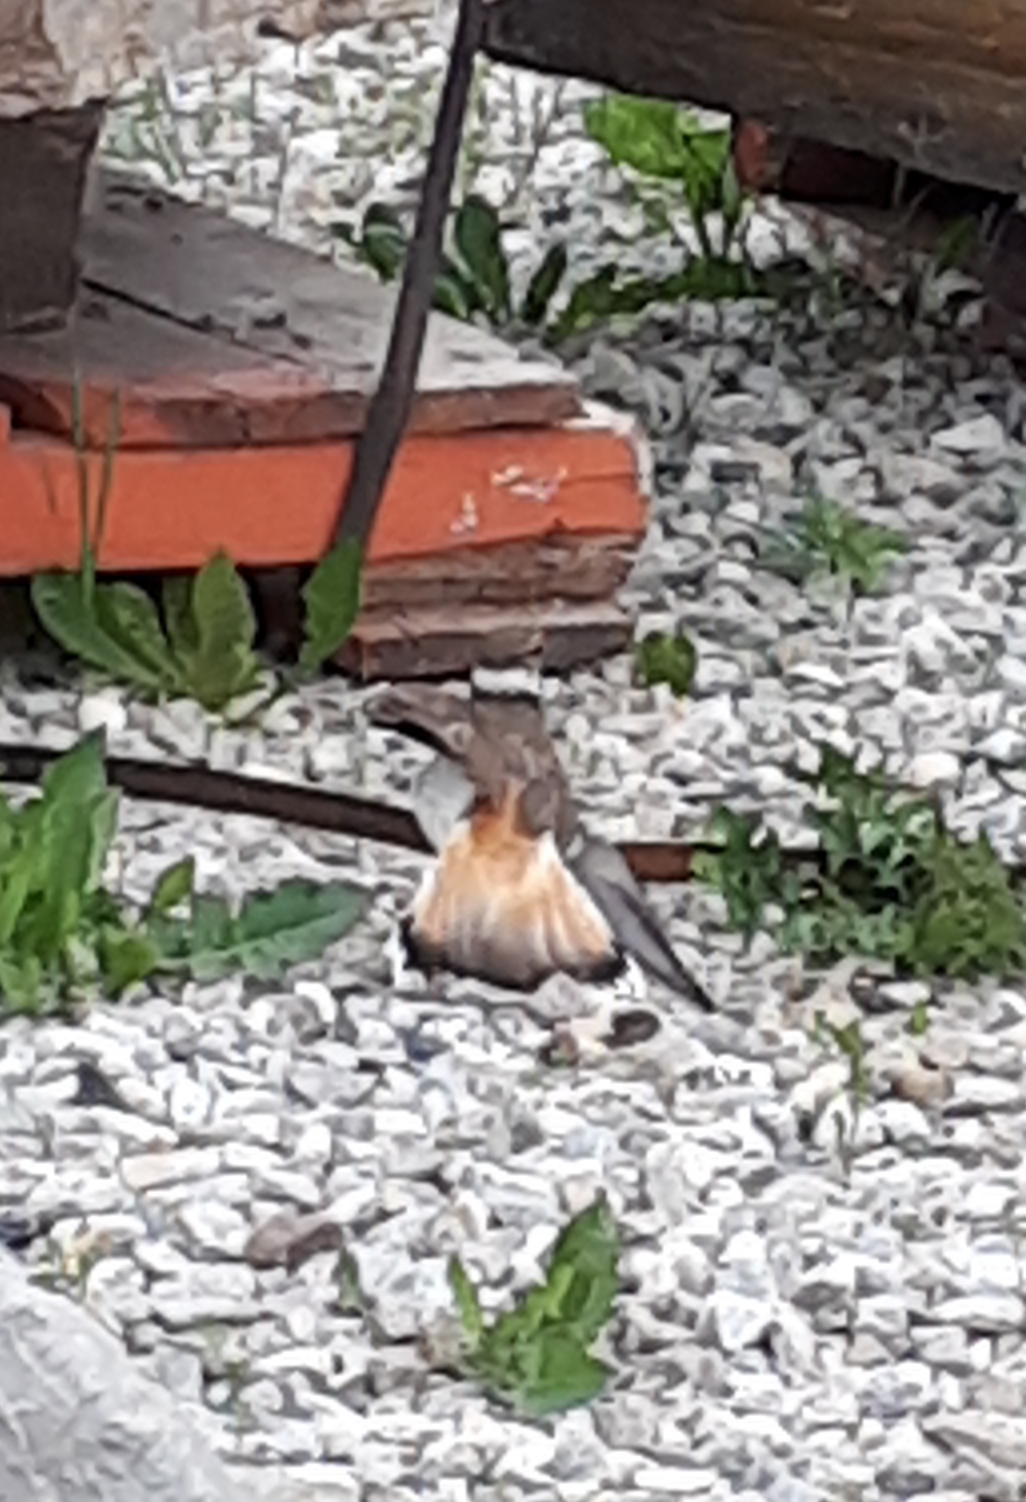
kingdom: Animalia
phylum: Chordata
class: Aves
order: Charadriiformes
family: Charadriidae
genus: Charadrius
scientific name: Charadrius vociferus
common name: Killdeer
